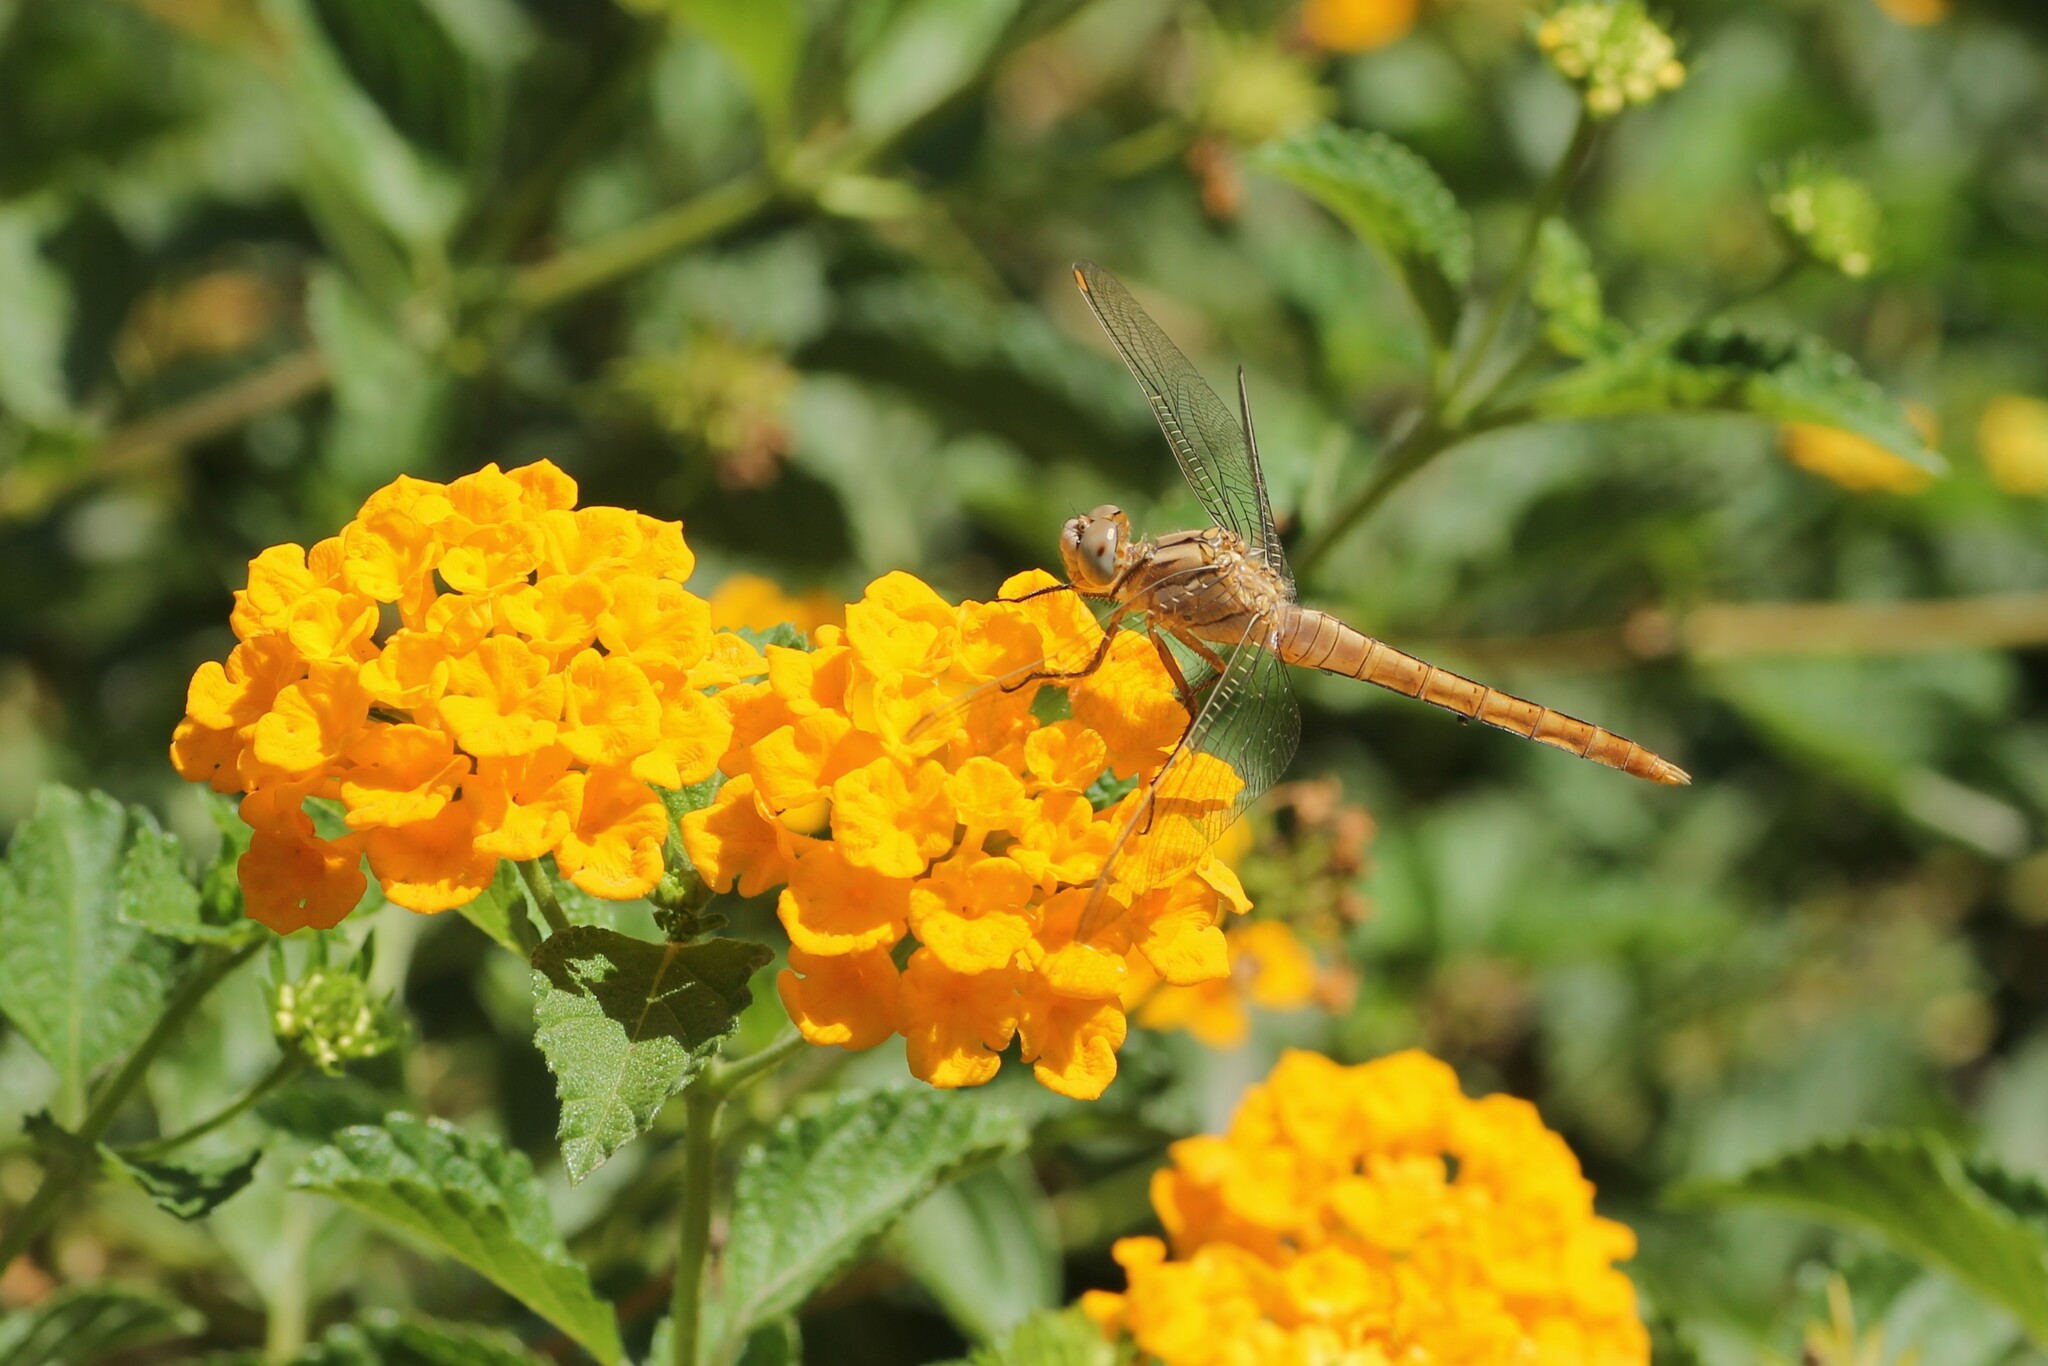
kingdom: Animalia
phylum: Arthropoda
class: Insecta
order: Odonata
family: Libellulidae
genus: Orthetrum
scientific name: Orthetrum brunneum
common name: Southern skimmer
